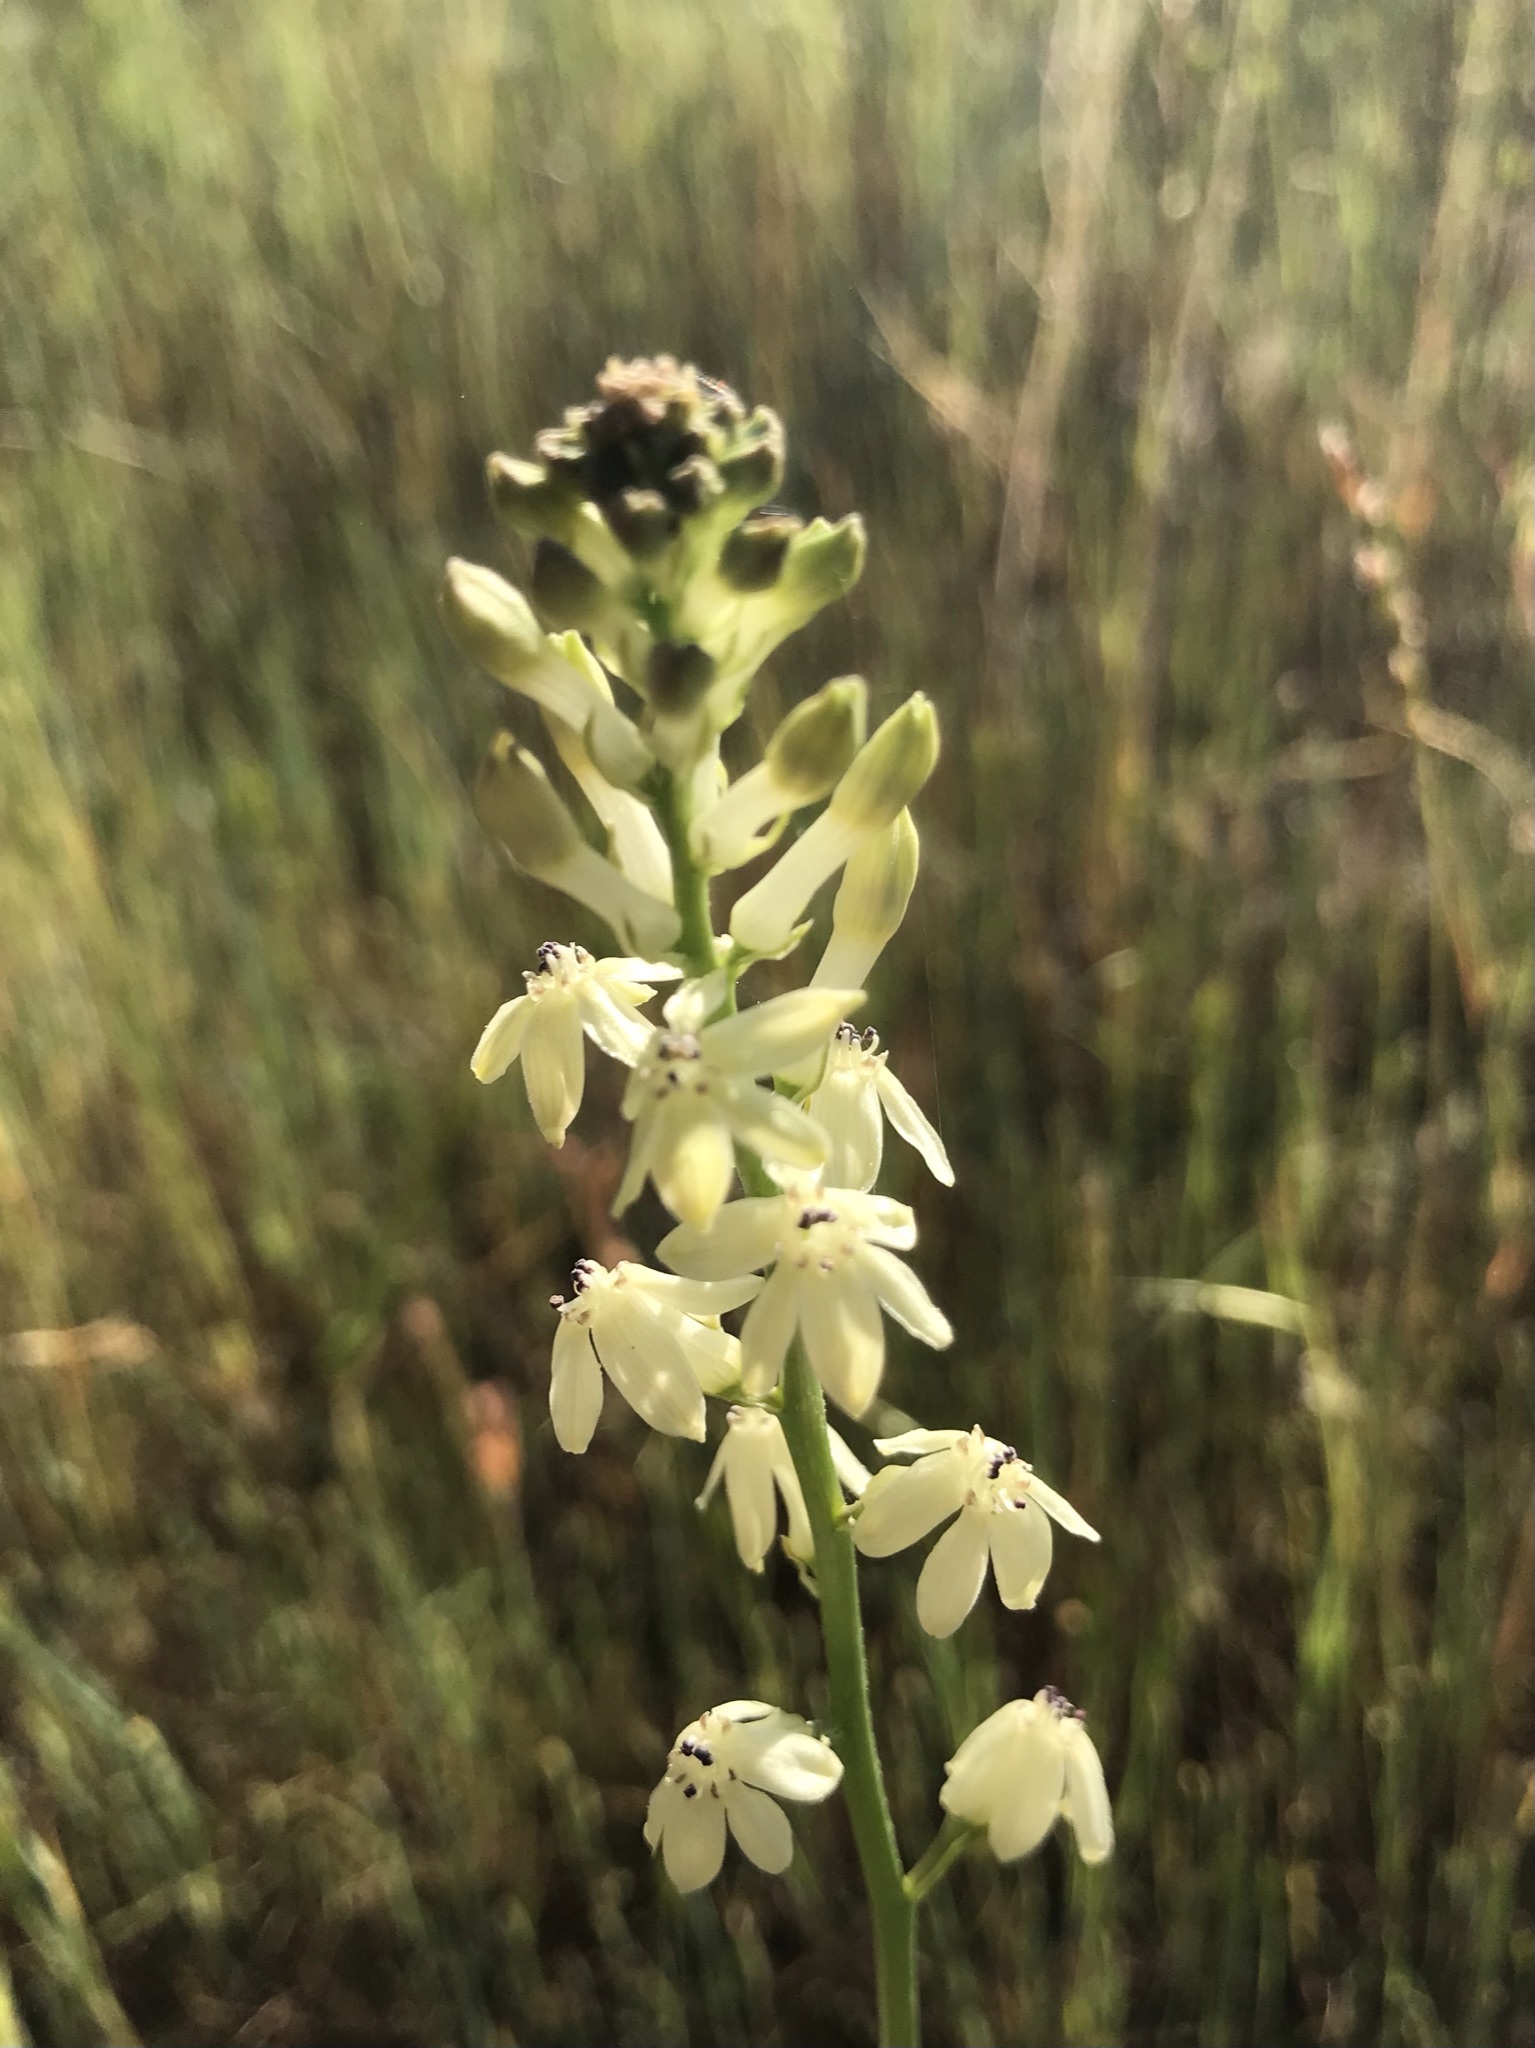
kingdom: Plantae
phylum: Tracheophyta
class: Liliopsida
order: Asparagales
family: Tecophilaeaceae
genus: Odontostomum
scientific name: Odontostomum hartwegii
